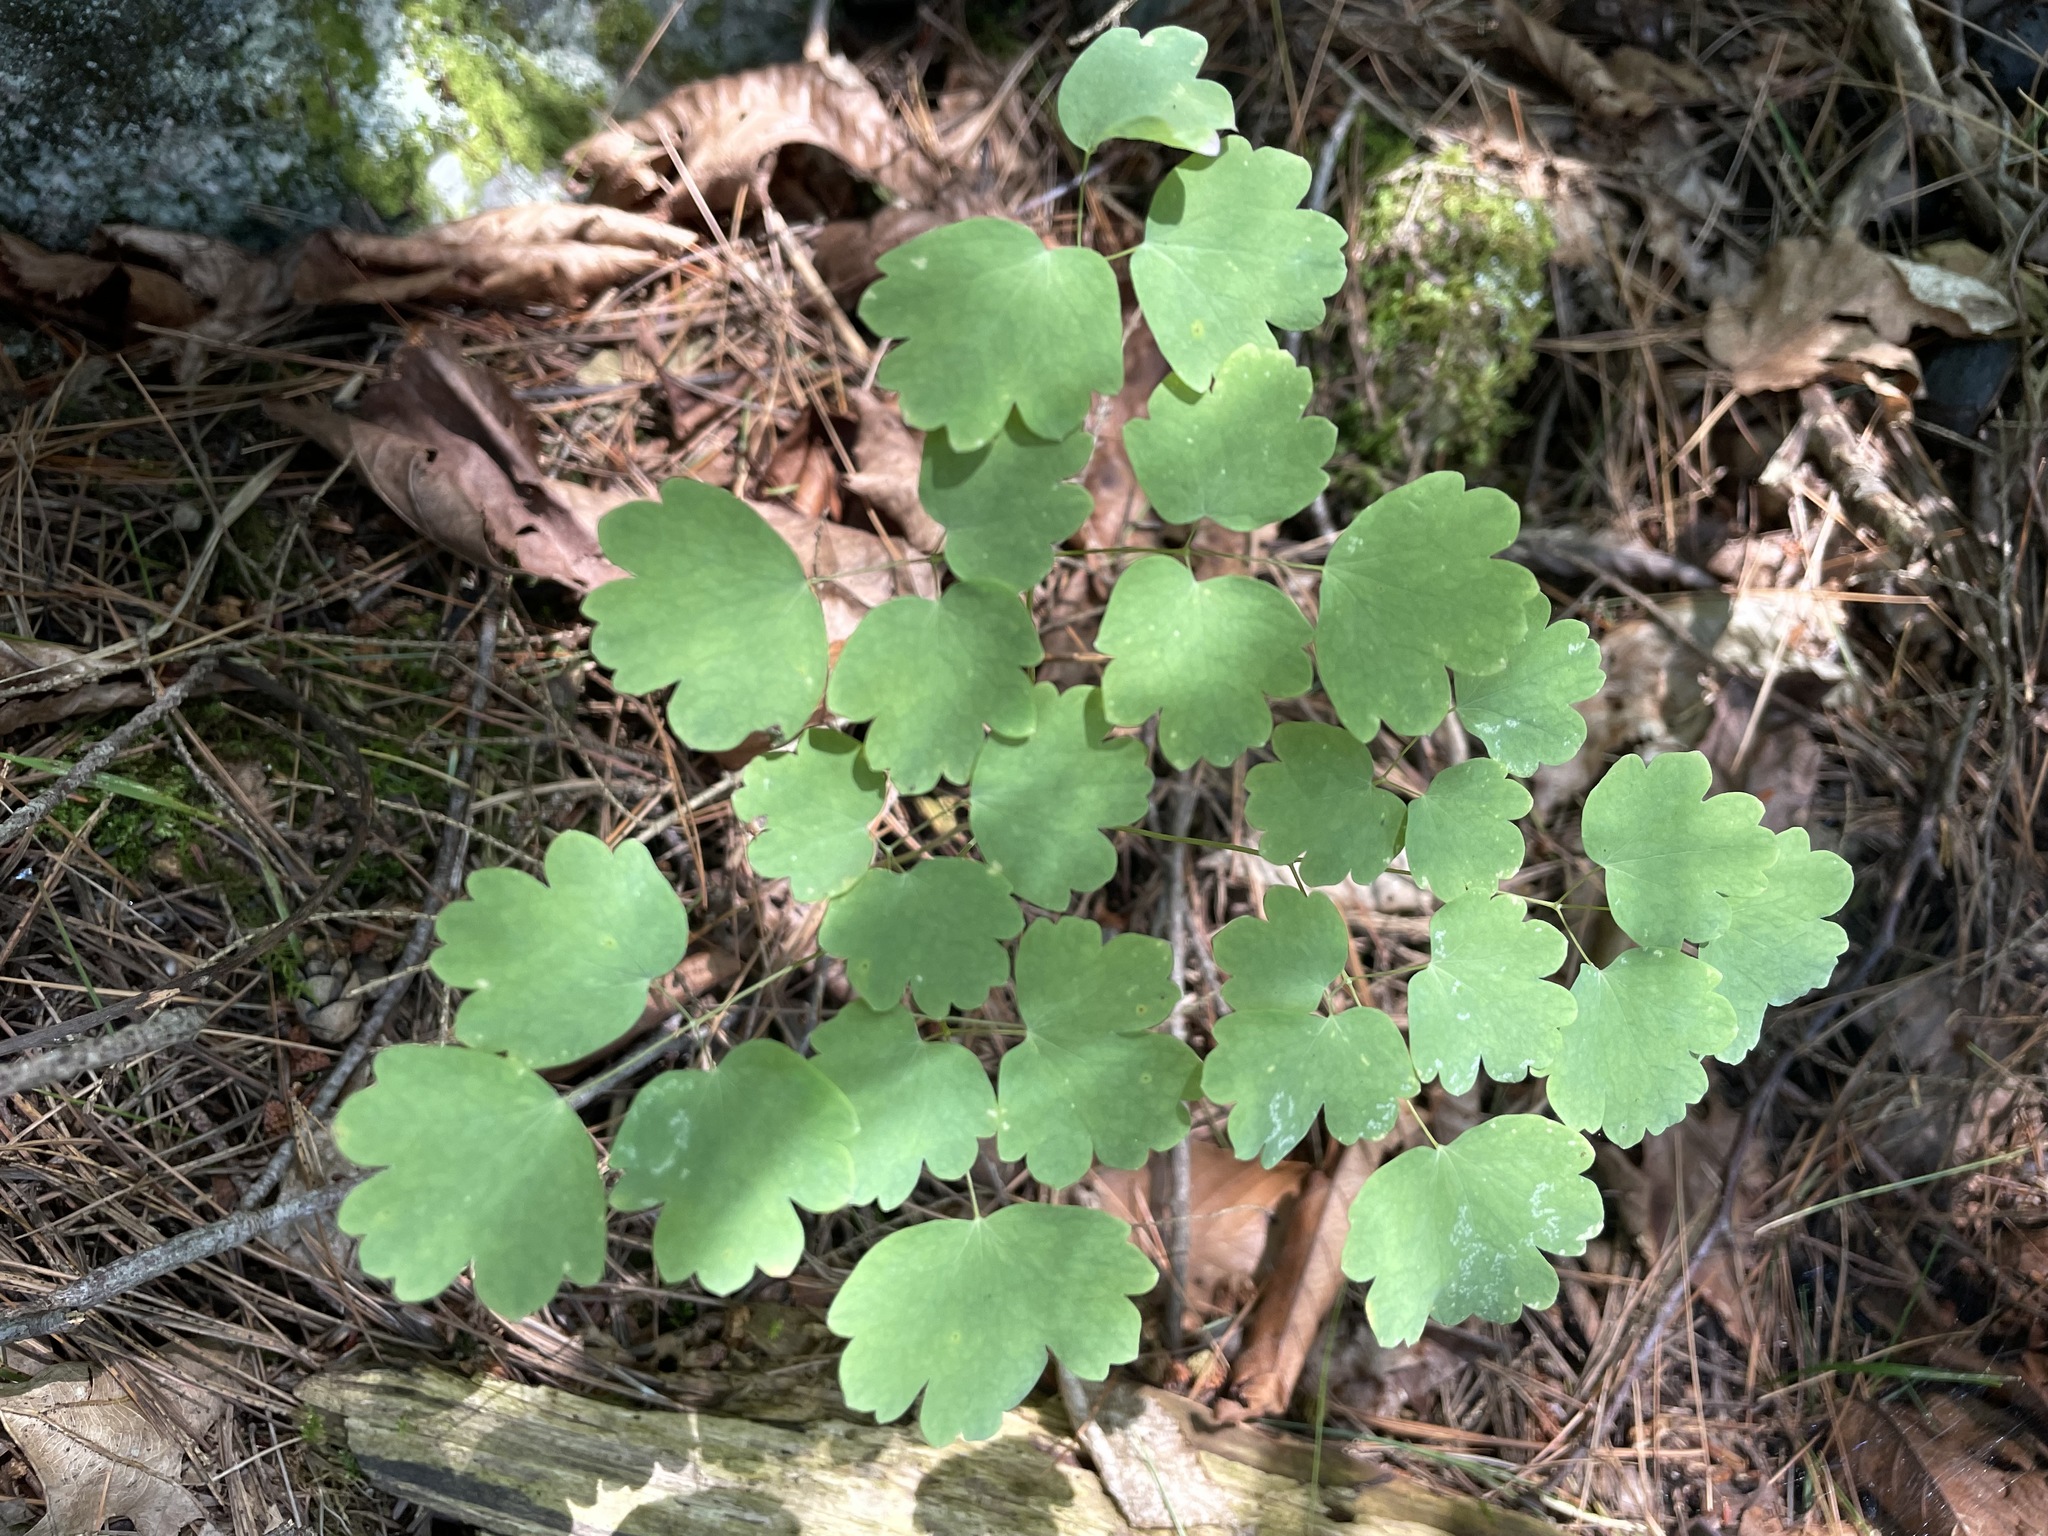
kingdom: Plantae
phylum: Tracheophyta
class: Magnoliopsida
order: Ranunculales
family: Ranunculaceae
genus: Thalictrum
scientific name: Thalictrum dioicum
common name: Early meadow-rue
